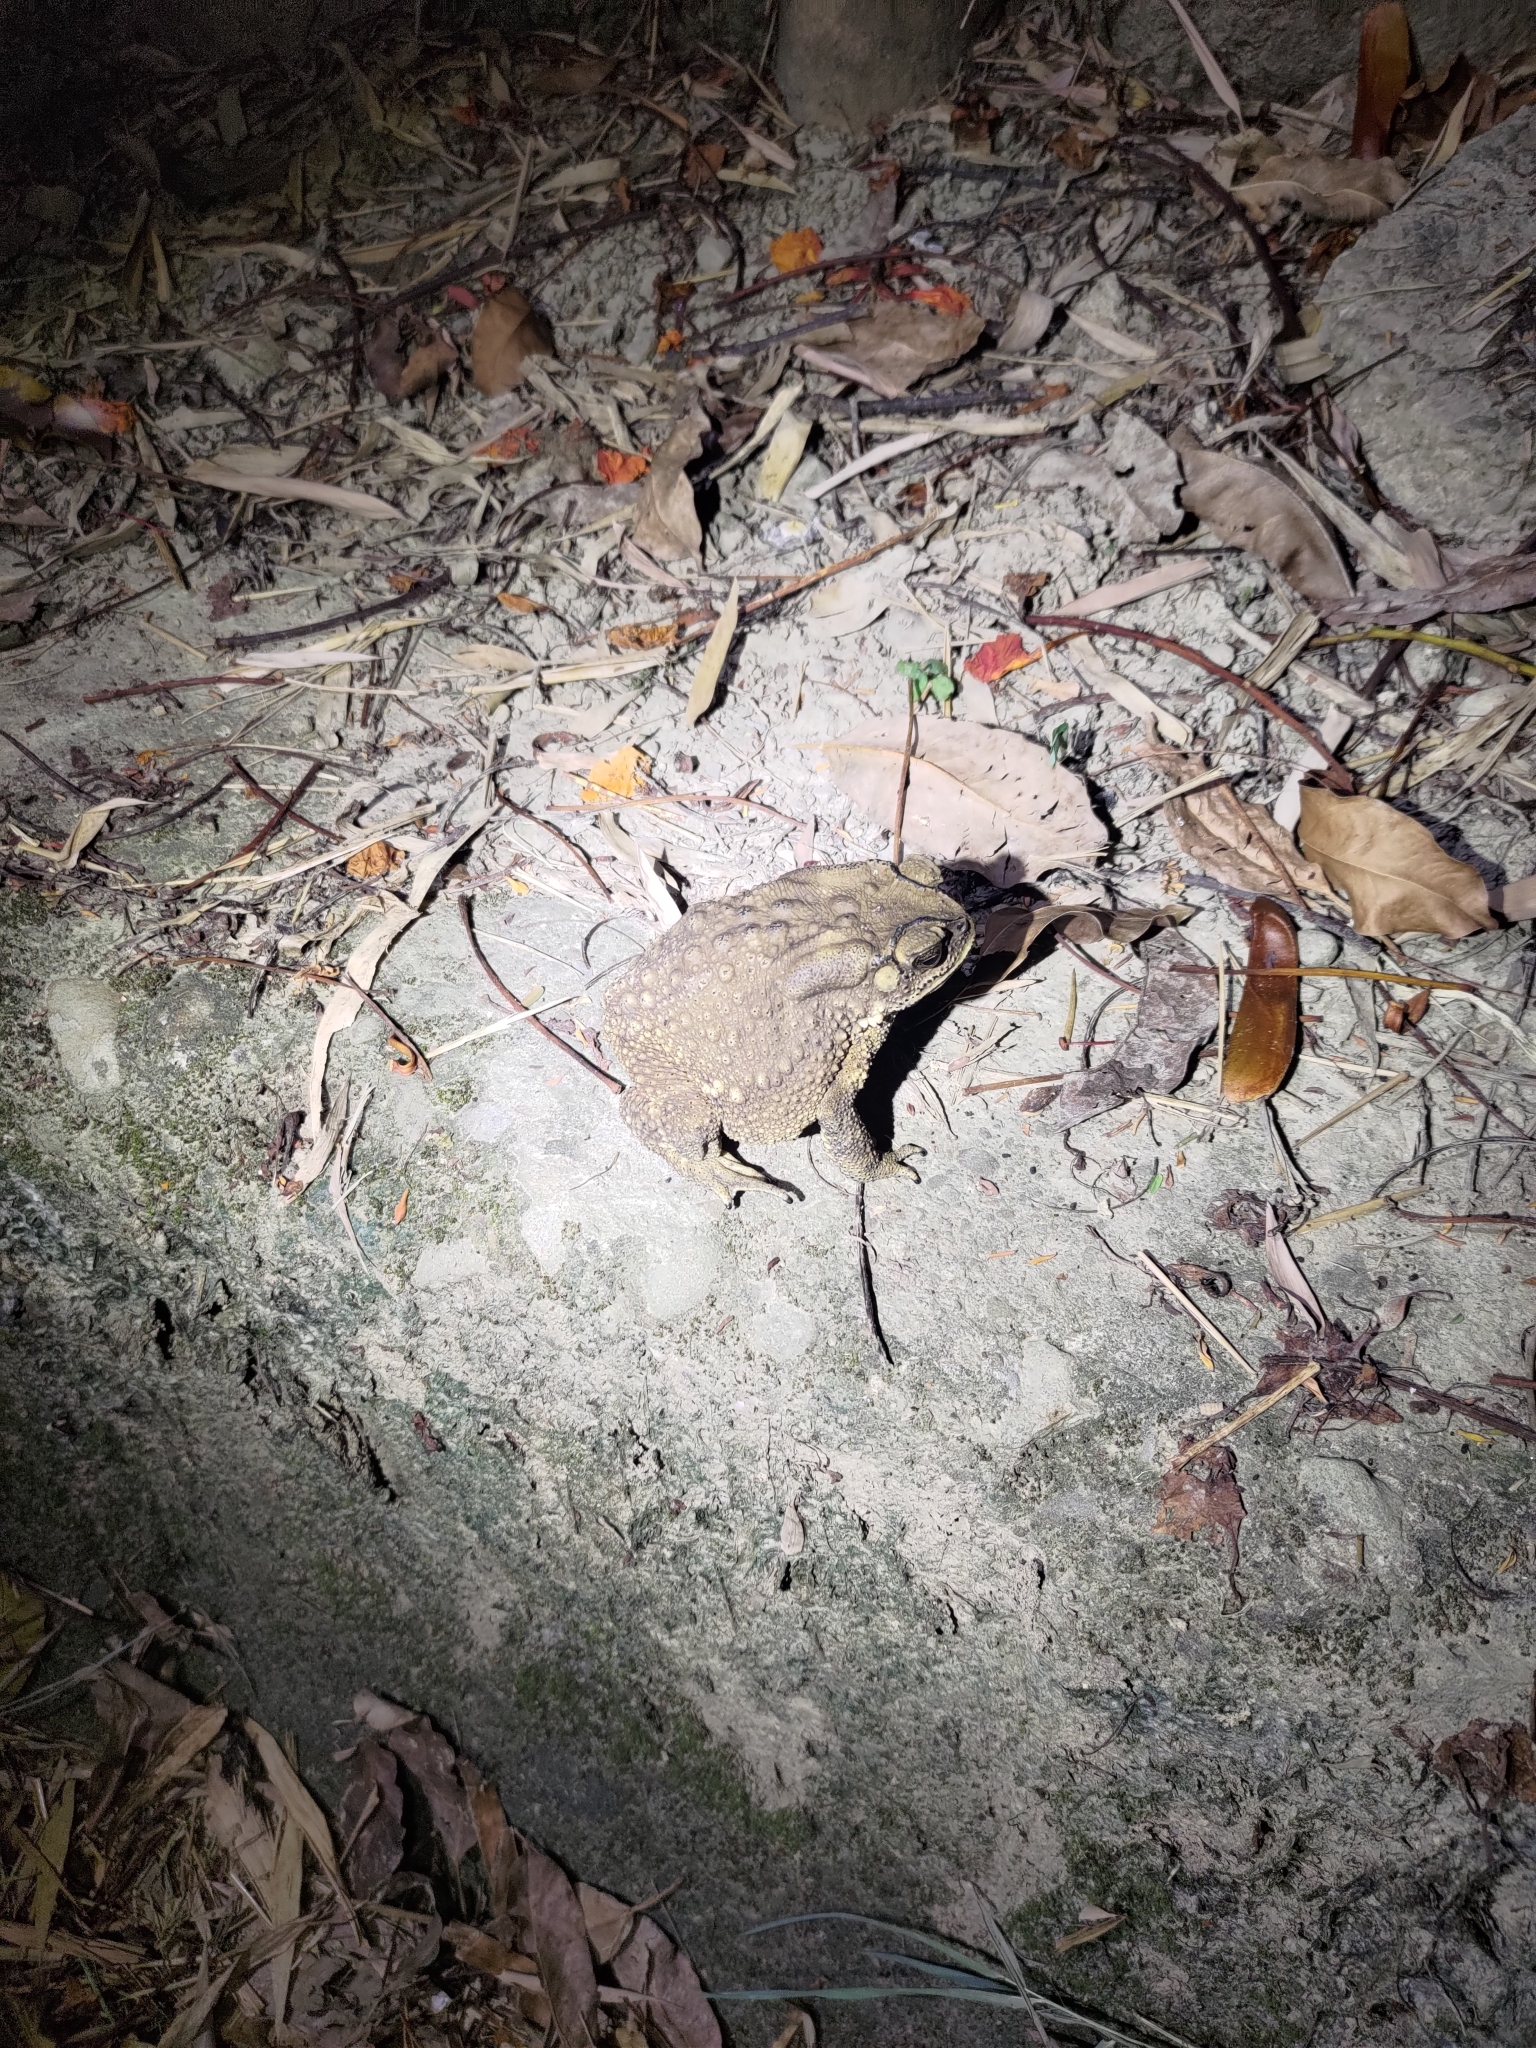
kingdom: Animalia
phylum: Chordata
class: Amphibia
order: Anura
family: Bufonidae
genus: Duttaphrynus
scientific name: Duttaphrynus melanostictus
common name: Common sunda toad
